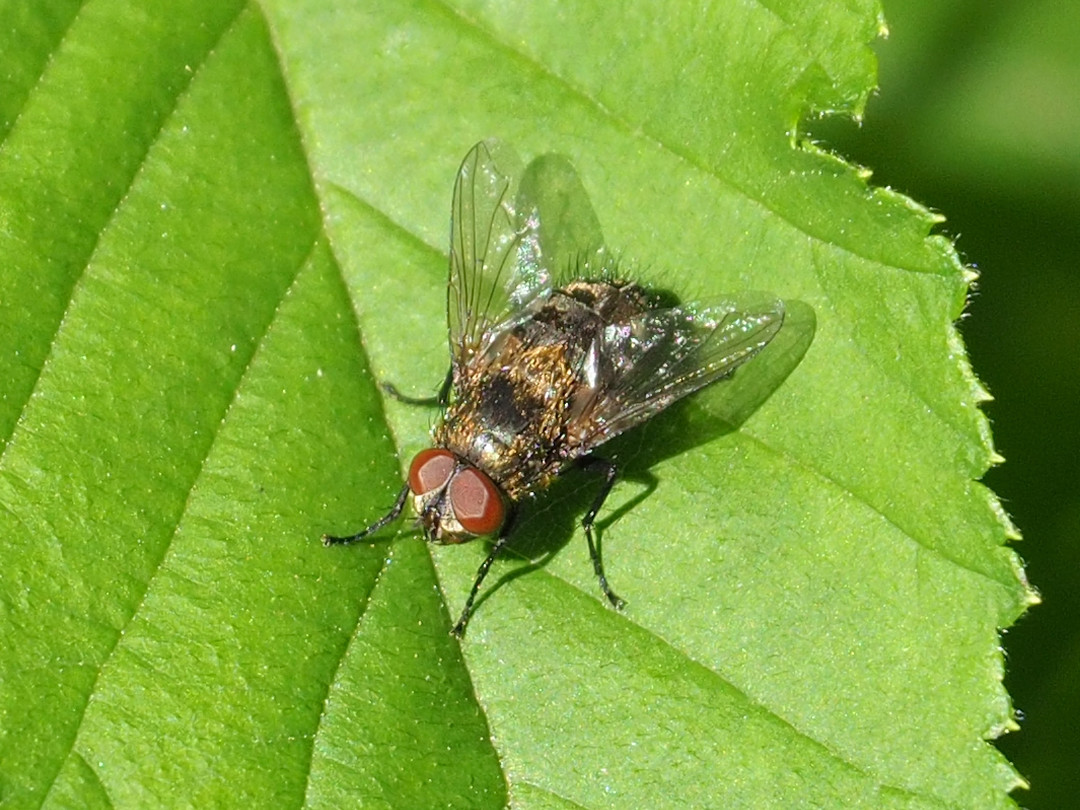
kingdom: Animalia
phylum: Arthropoda
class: Insecta
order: Diptera
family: Polleniidae
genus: Pollenia
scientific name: Pollenia
